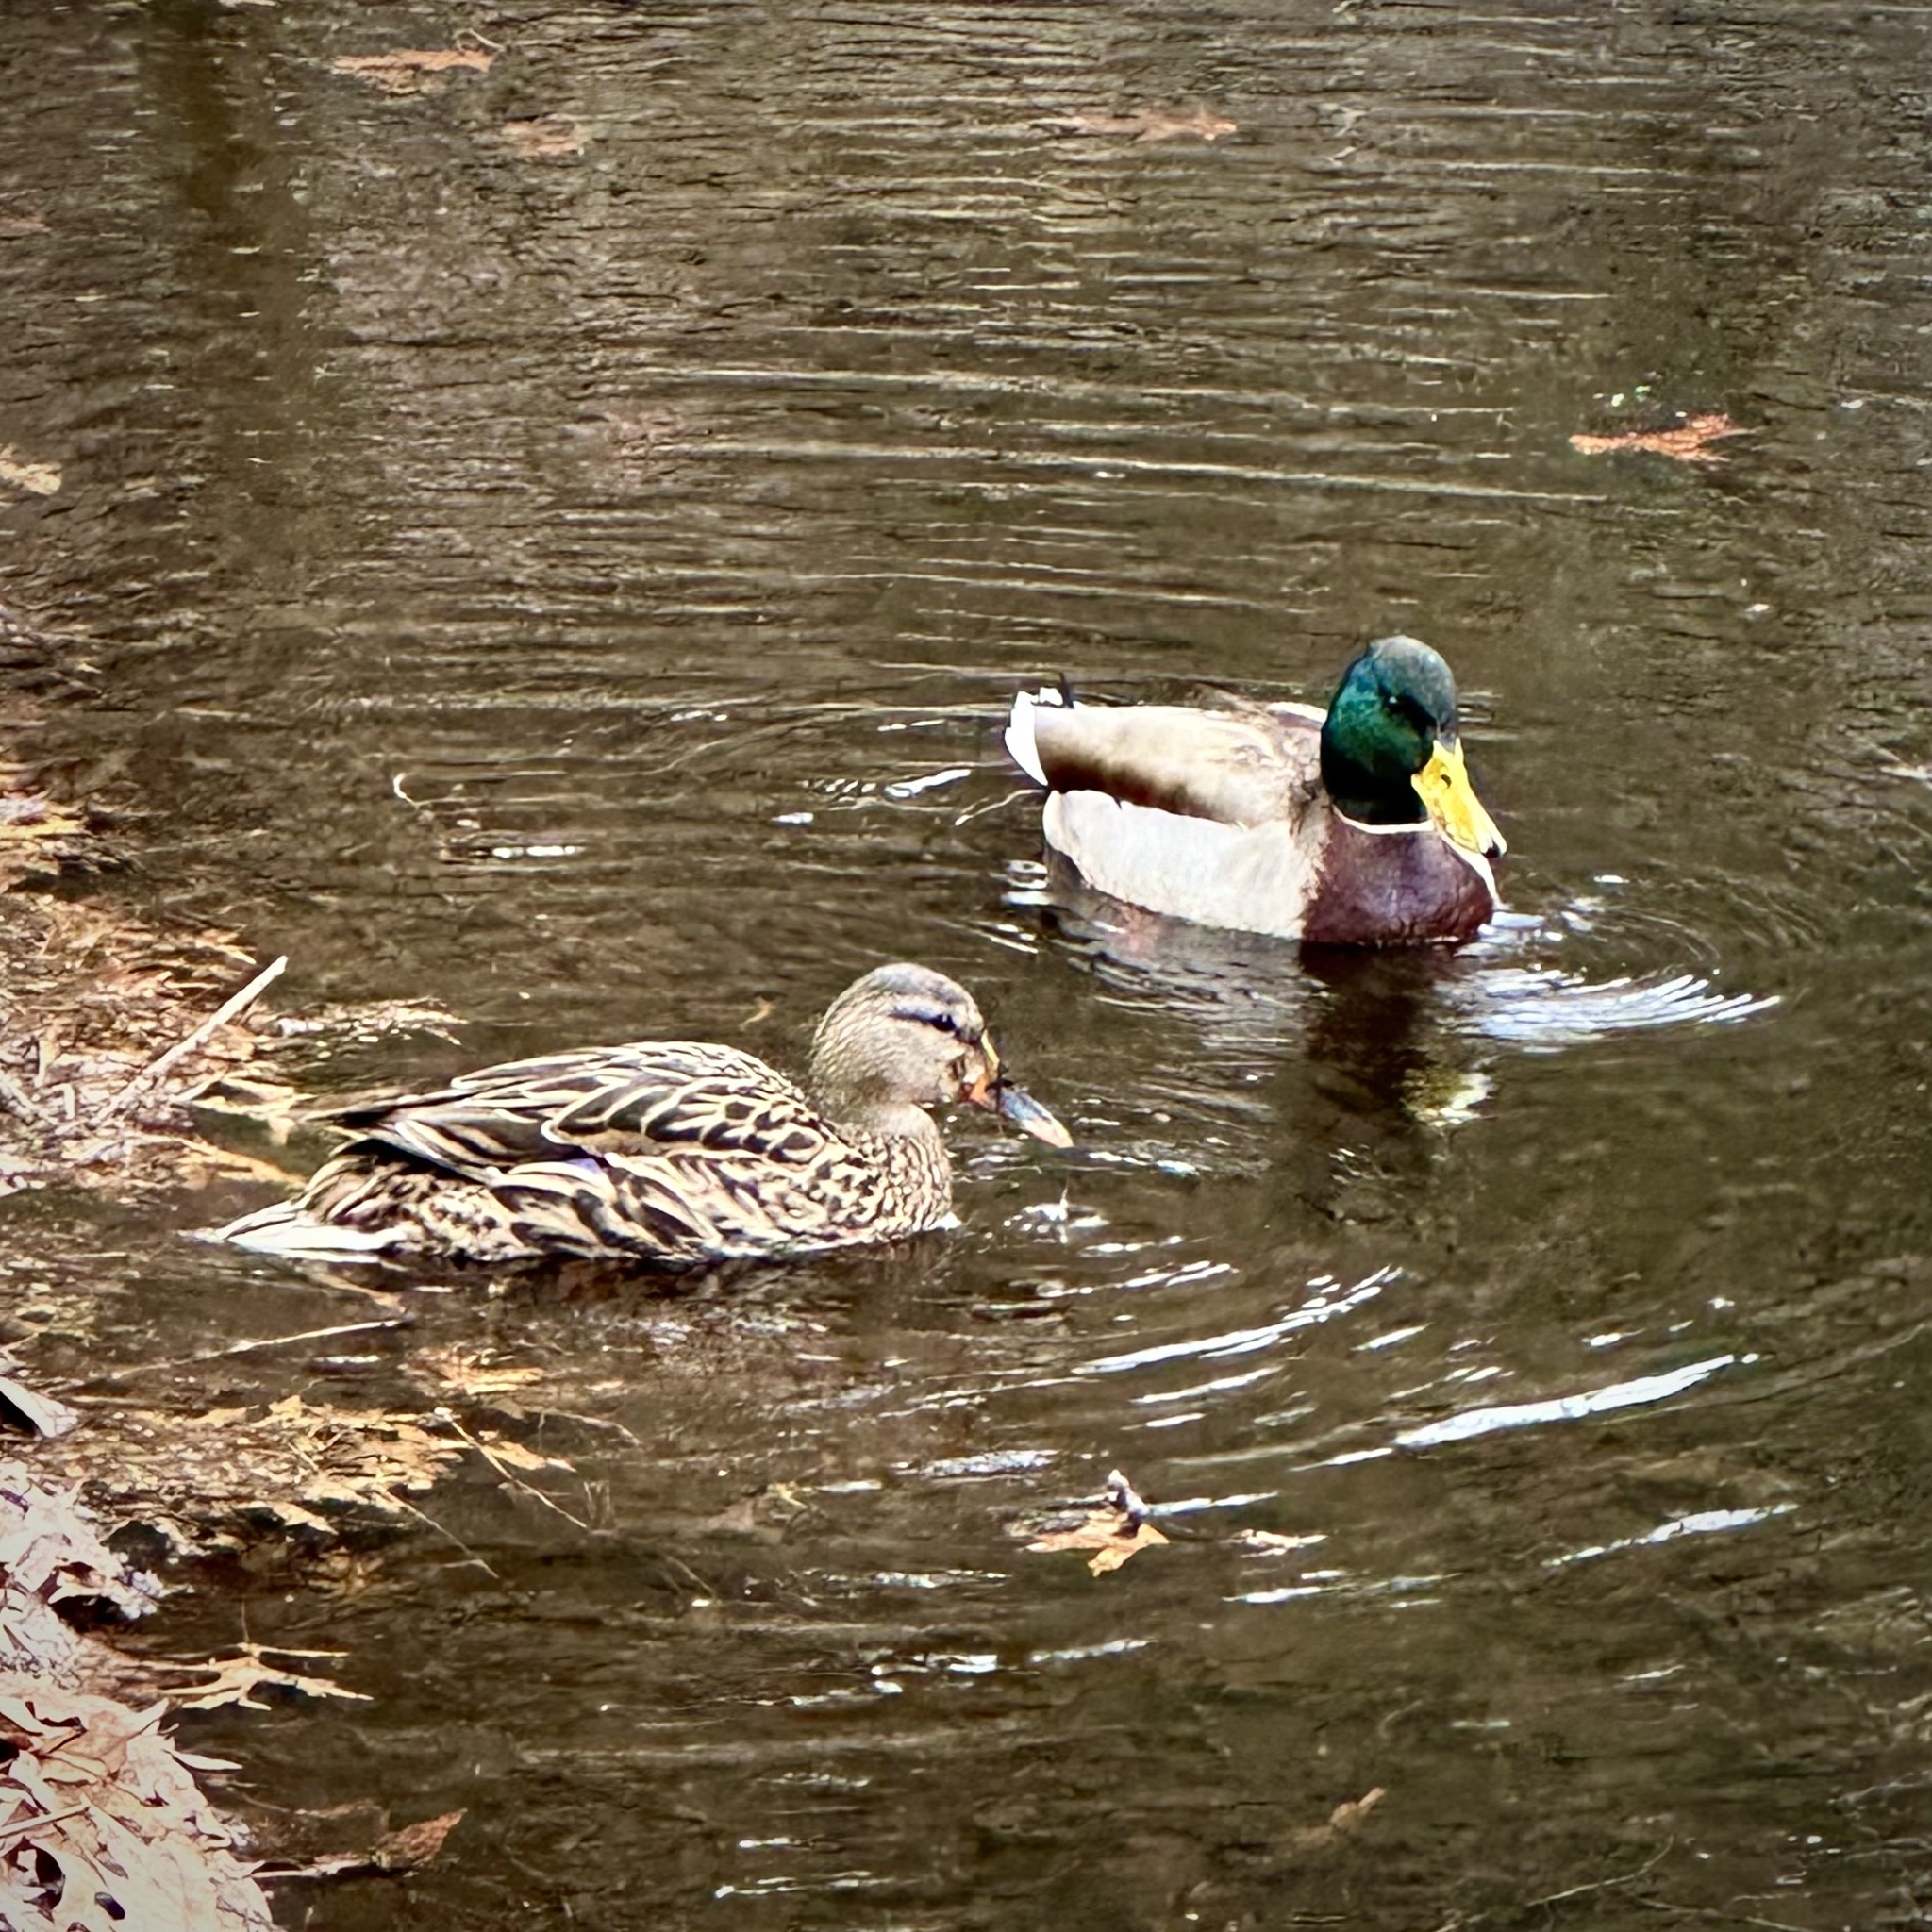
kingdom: Animalia
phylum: Chordata
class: Aves
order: Anseriformes
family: Anatidae
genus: Anas
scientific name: Anas platyrhynchos
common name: Mallard
